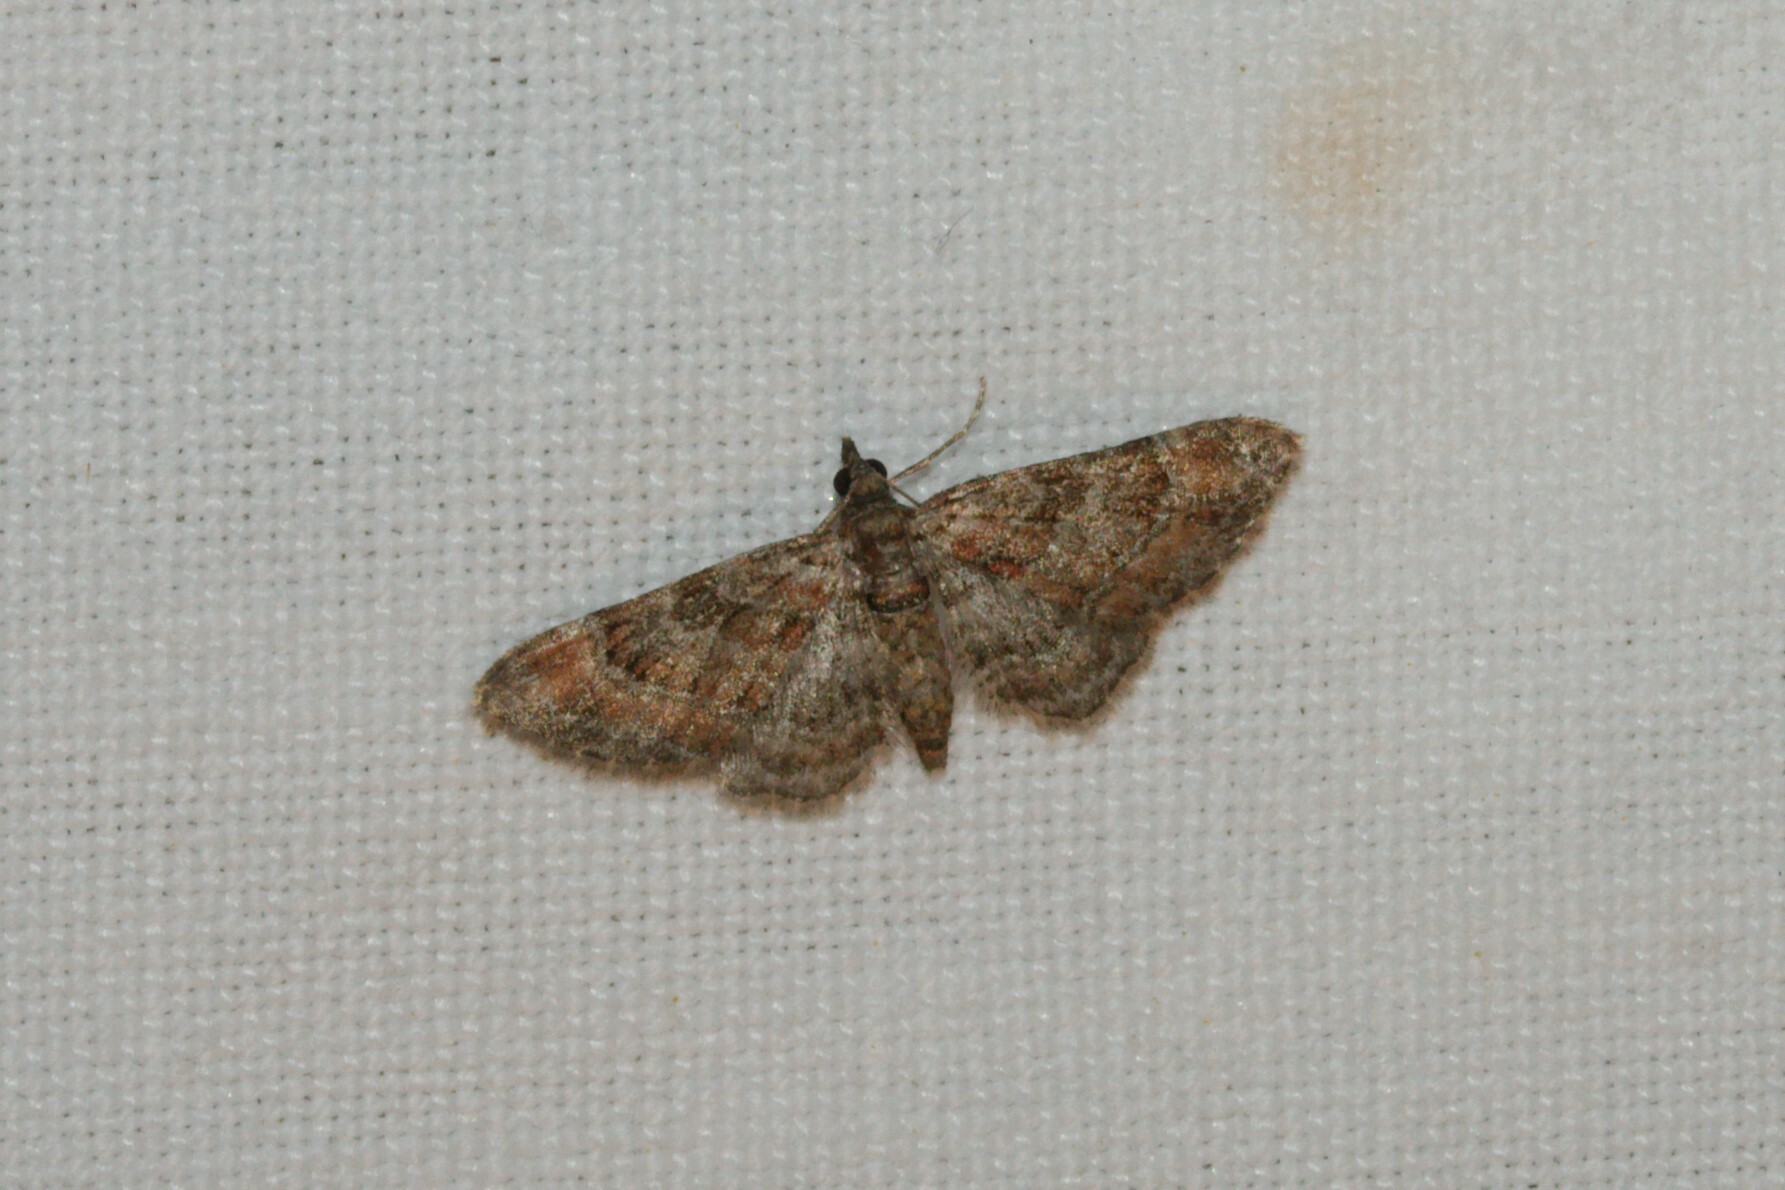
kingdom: Animalia
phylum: Arthropoda
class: Insecta
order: Lepidoptera
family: Geometridae
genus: Gymnoscelis
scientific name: Gymnoscelis rufifasciata
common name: Double-striped pug
